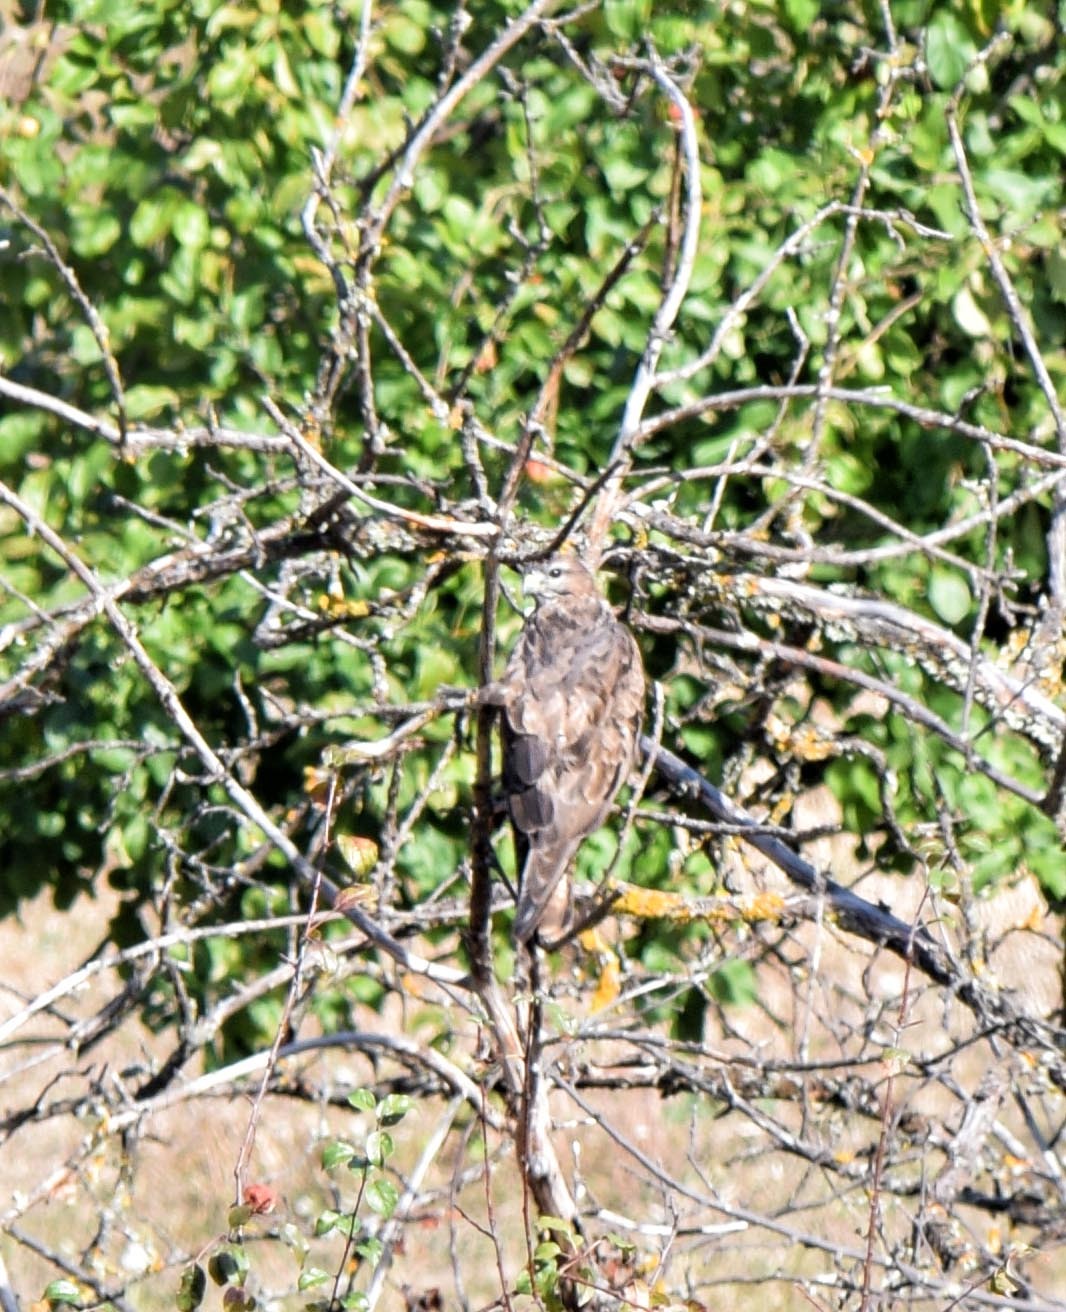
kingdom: Animalia
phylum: Chordata
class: Aves
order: Accipitriformes
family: Accipitridae
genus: Buteo
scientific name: Buteo buteo
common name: Common buzzard
